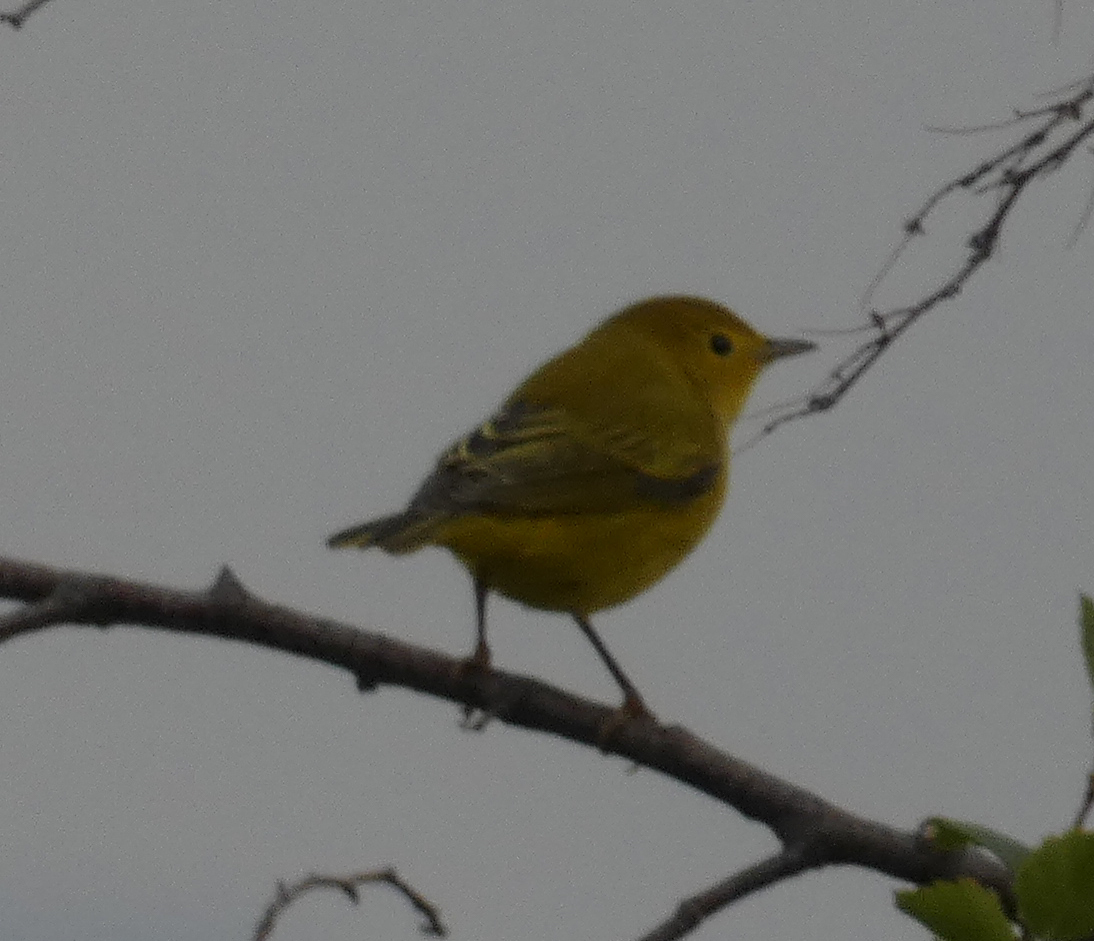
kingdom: Animalia
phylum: Chordata
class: Aves
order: Passeriformes
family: Parulidae
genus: Setophaga
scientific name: Setophaga petechia
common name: Yellow warbler
